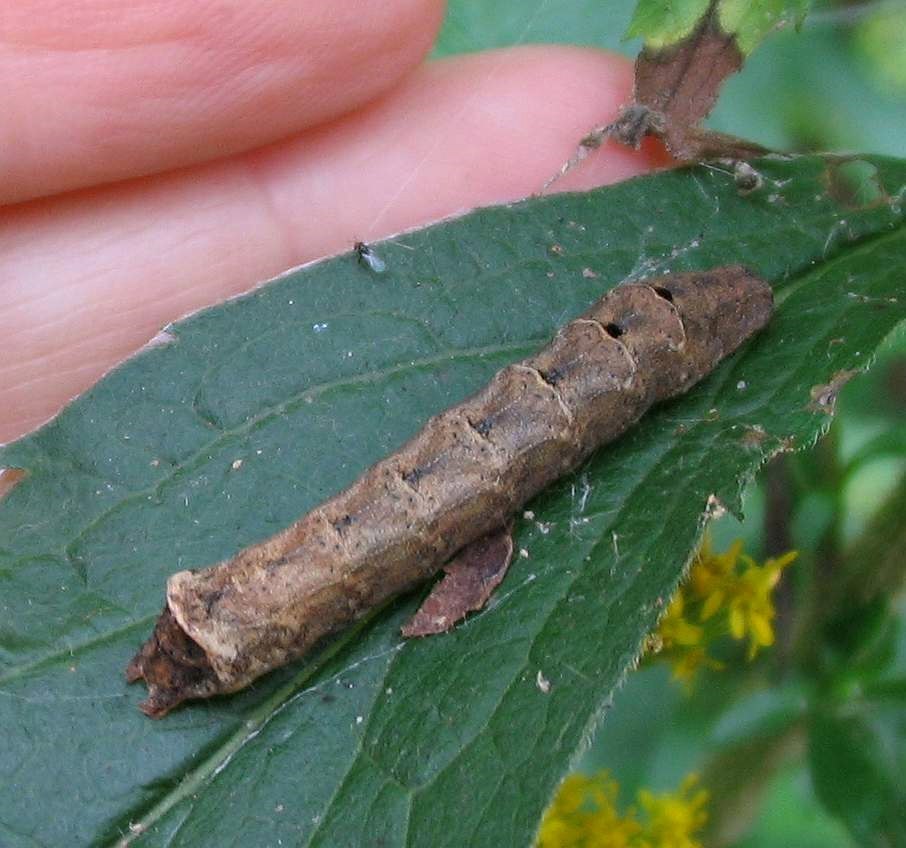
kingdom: Animalia
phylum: Arthropoda
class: Insecta
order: Lepidoptera
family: Noctuidae
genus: Orthodes
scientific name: Orthodes majuscula
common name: Rustic quaker
